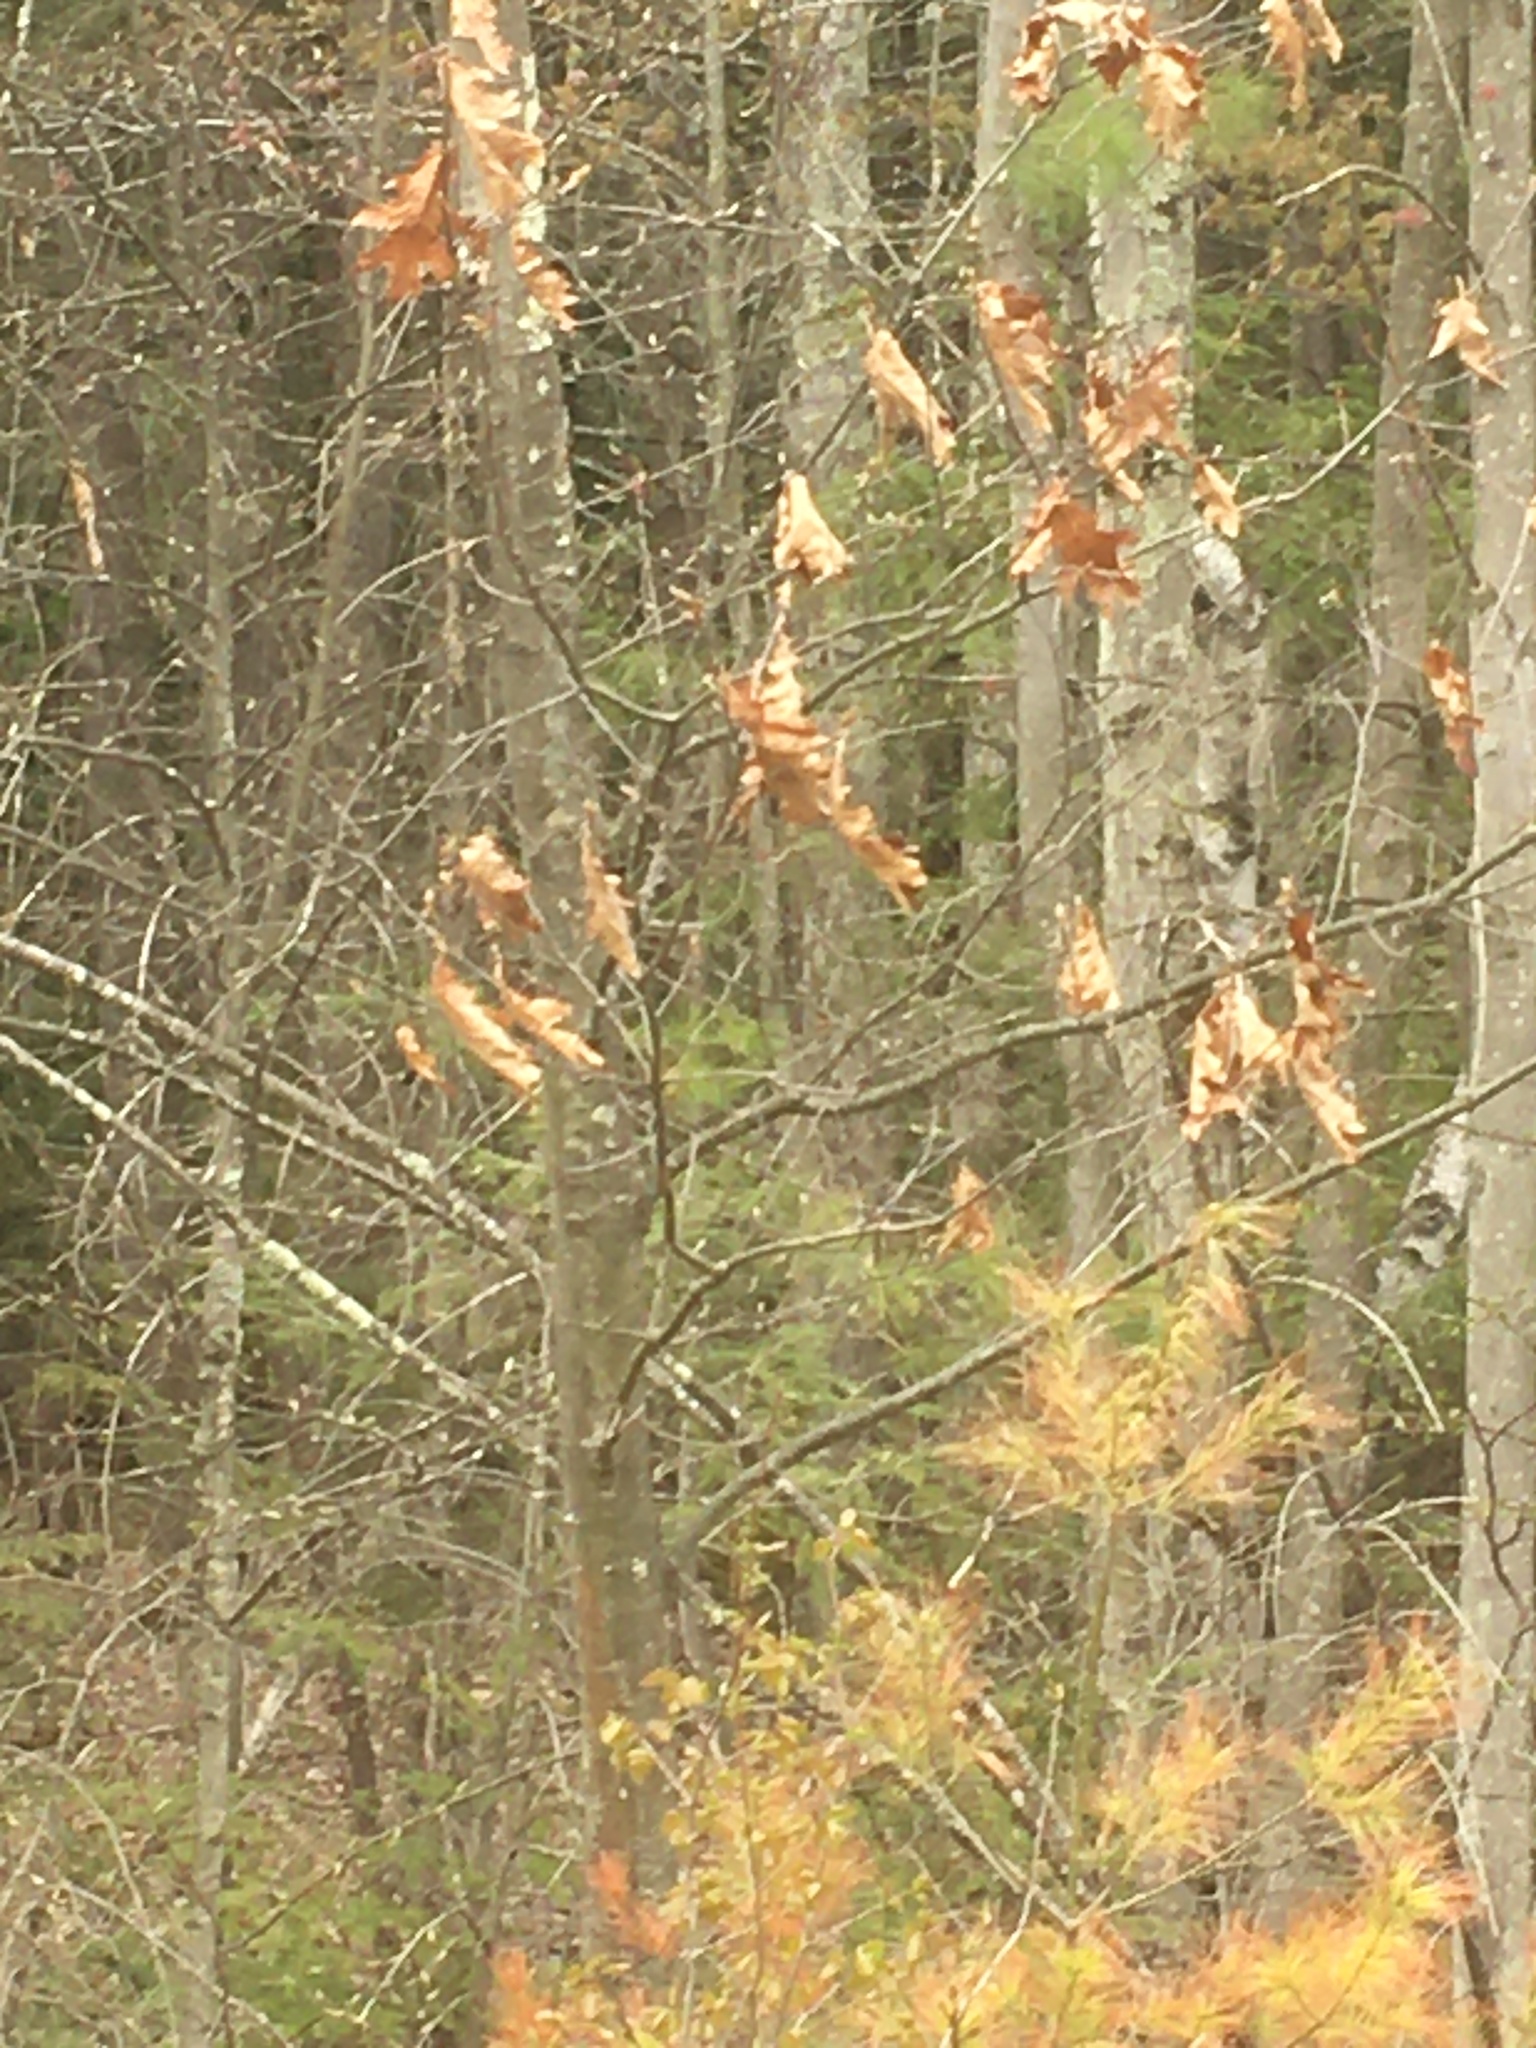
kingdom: Plantae
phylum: Tracheophyta
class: Magnoliopsida
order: Fagales
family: Fagaceae
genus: Quercus
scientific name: Quercus rubra
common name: Red oak
